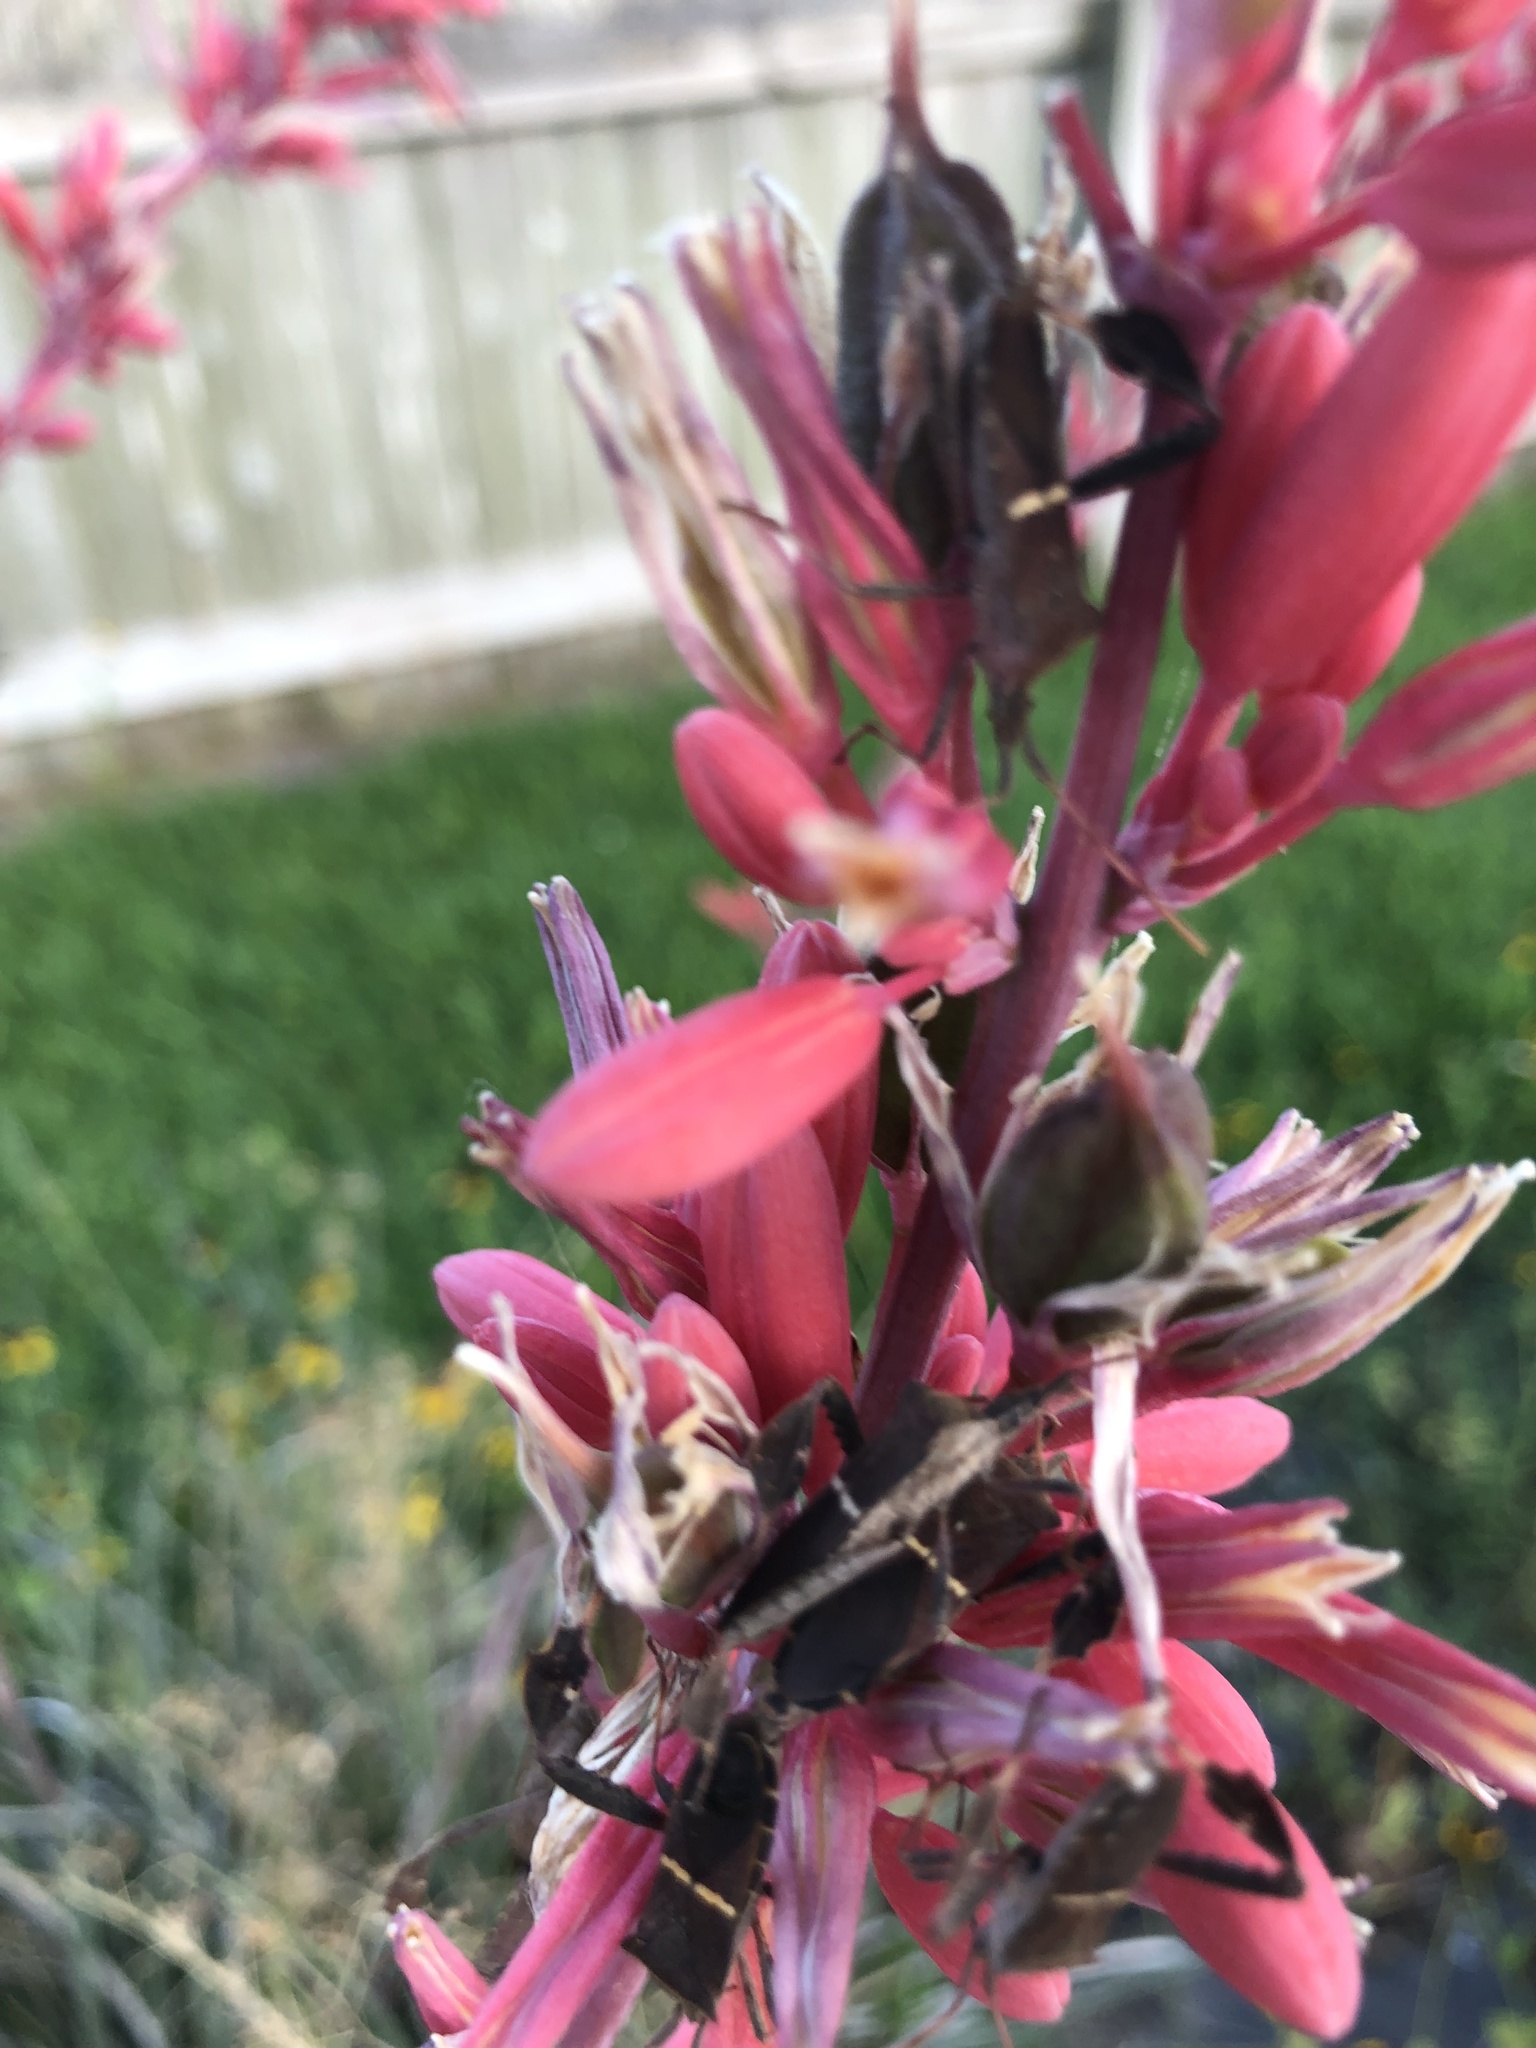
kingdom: Animalia
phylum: Arthropoda
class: Insecta
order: Hemiptera
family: Coreidae
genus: Leptoglossus
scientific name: Leptoglossus phyllopus
